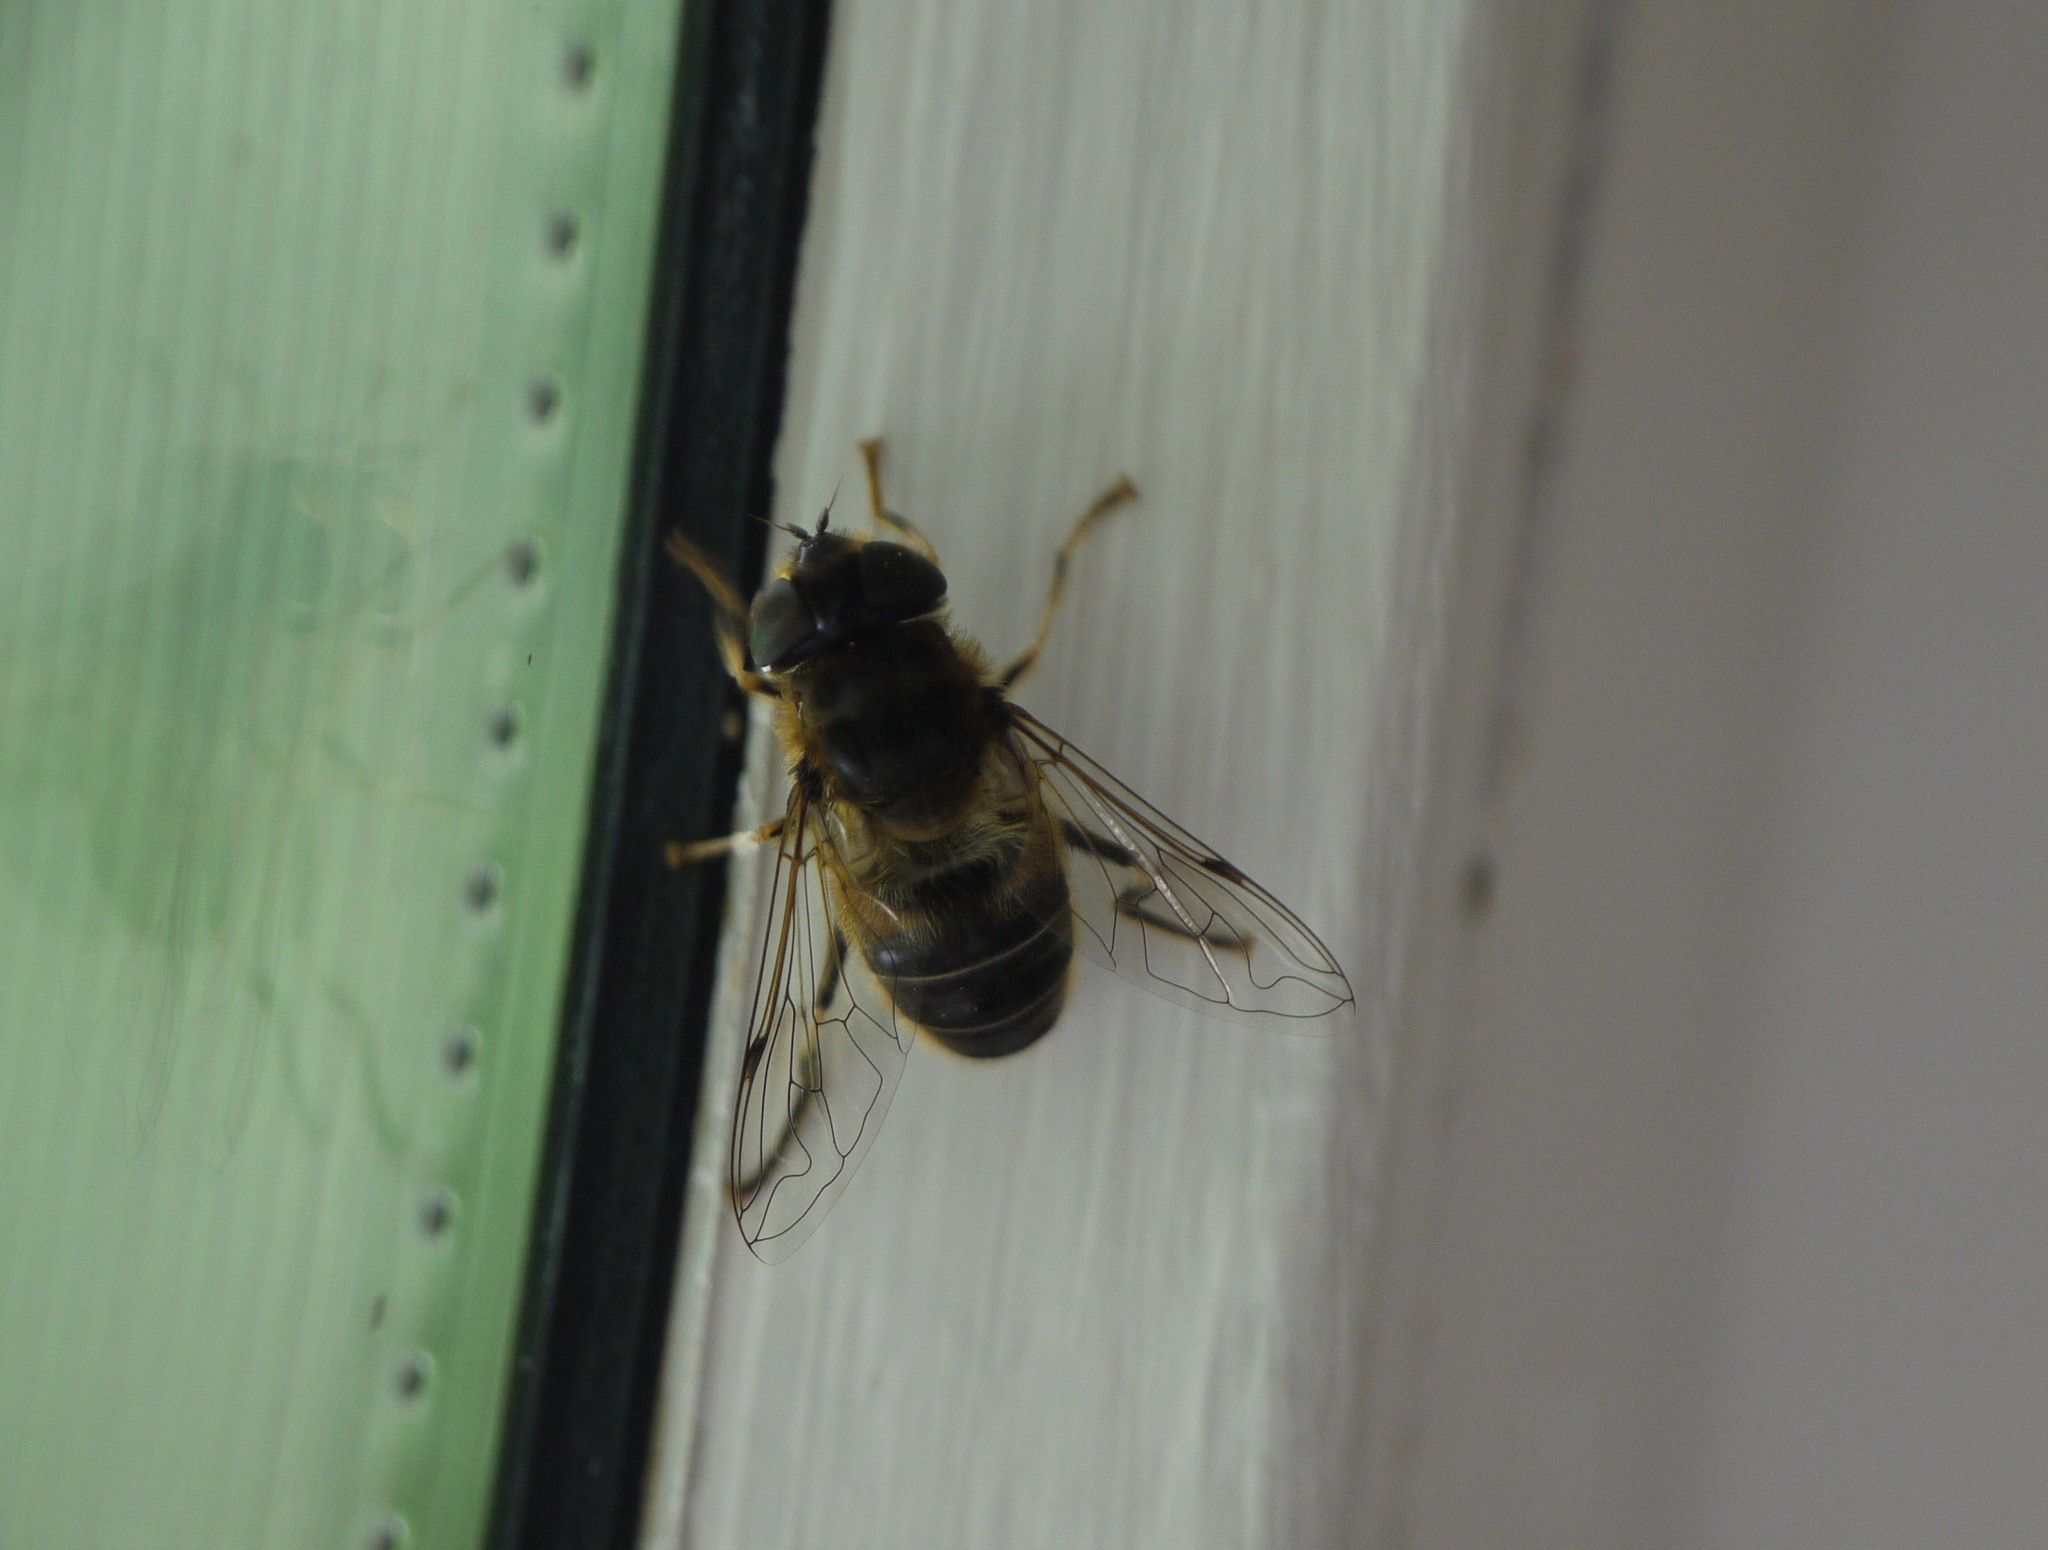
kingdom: Animalia
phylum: Arthropoda
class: Insecta
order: Diptera
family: Syrphidae
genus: Eristalis
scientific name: Eristalis pertinax
